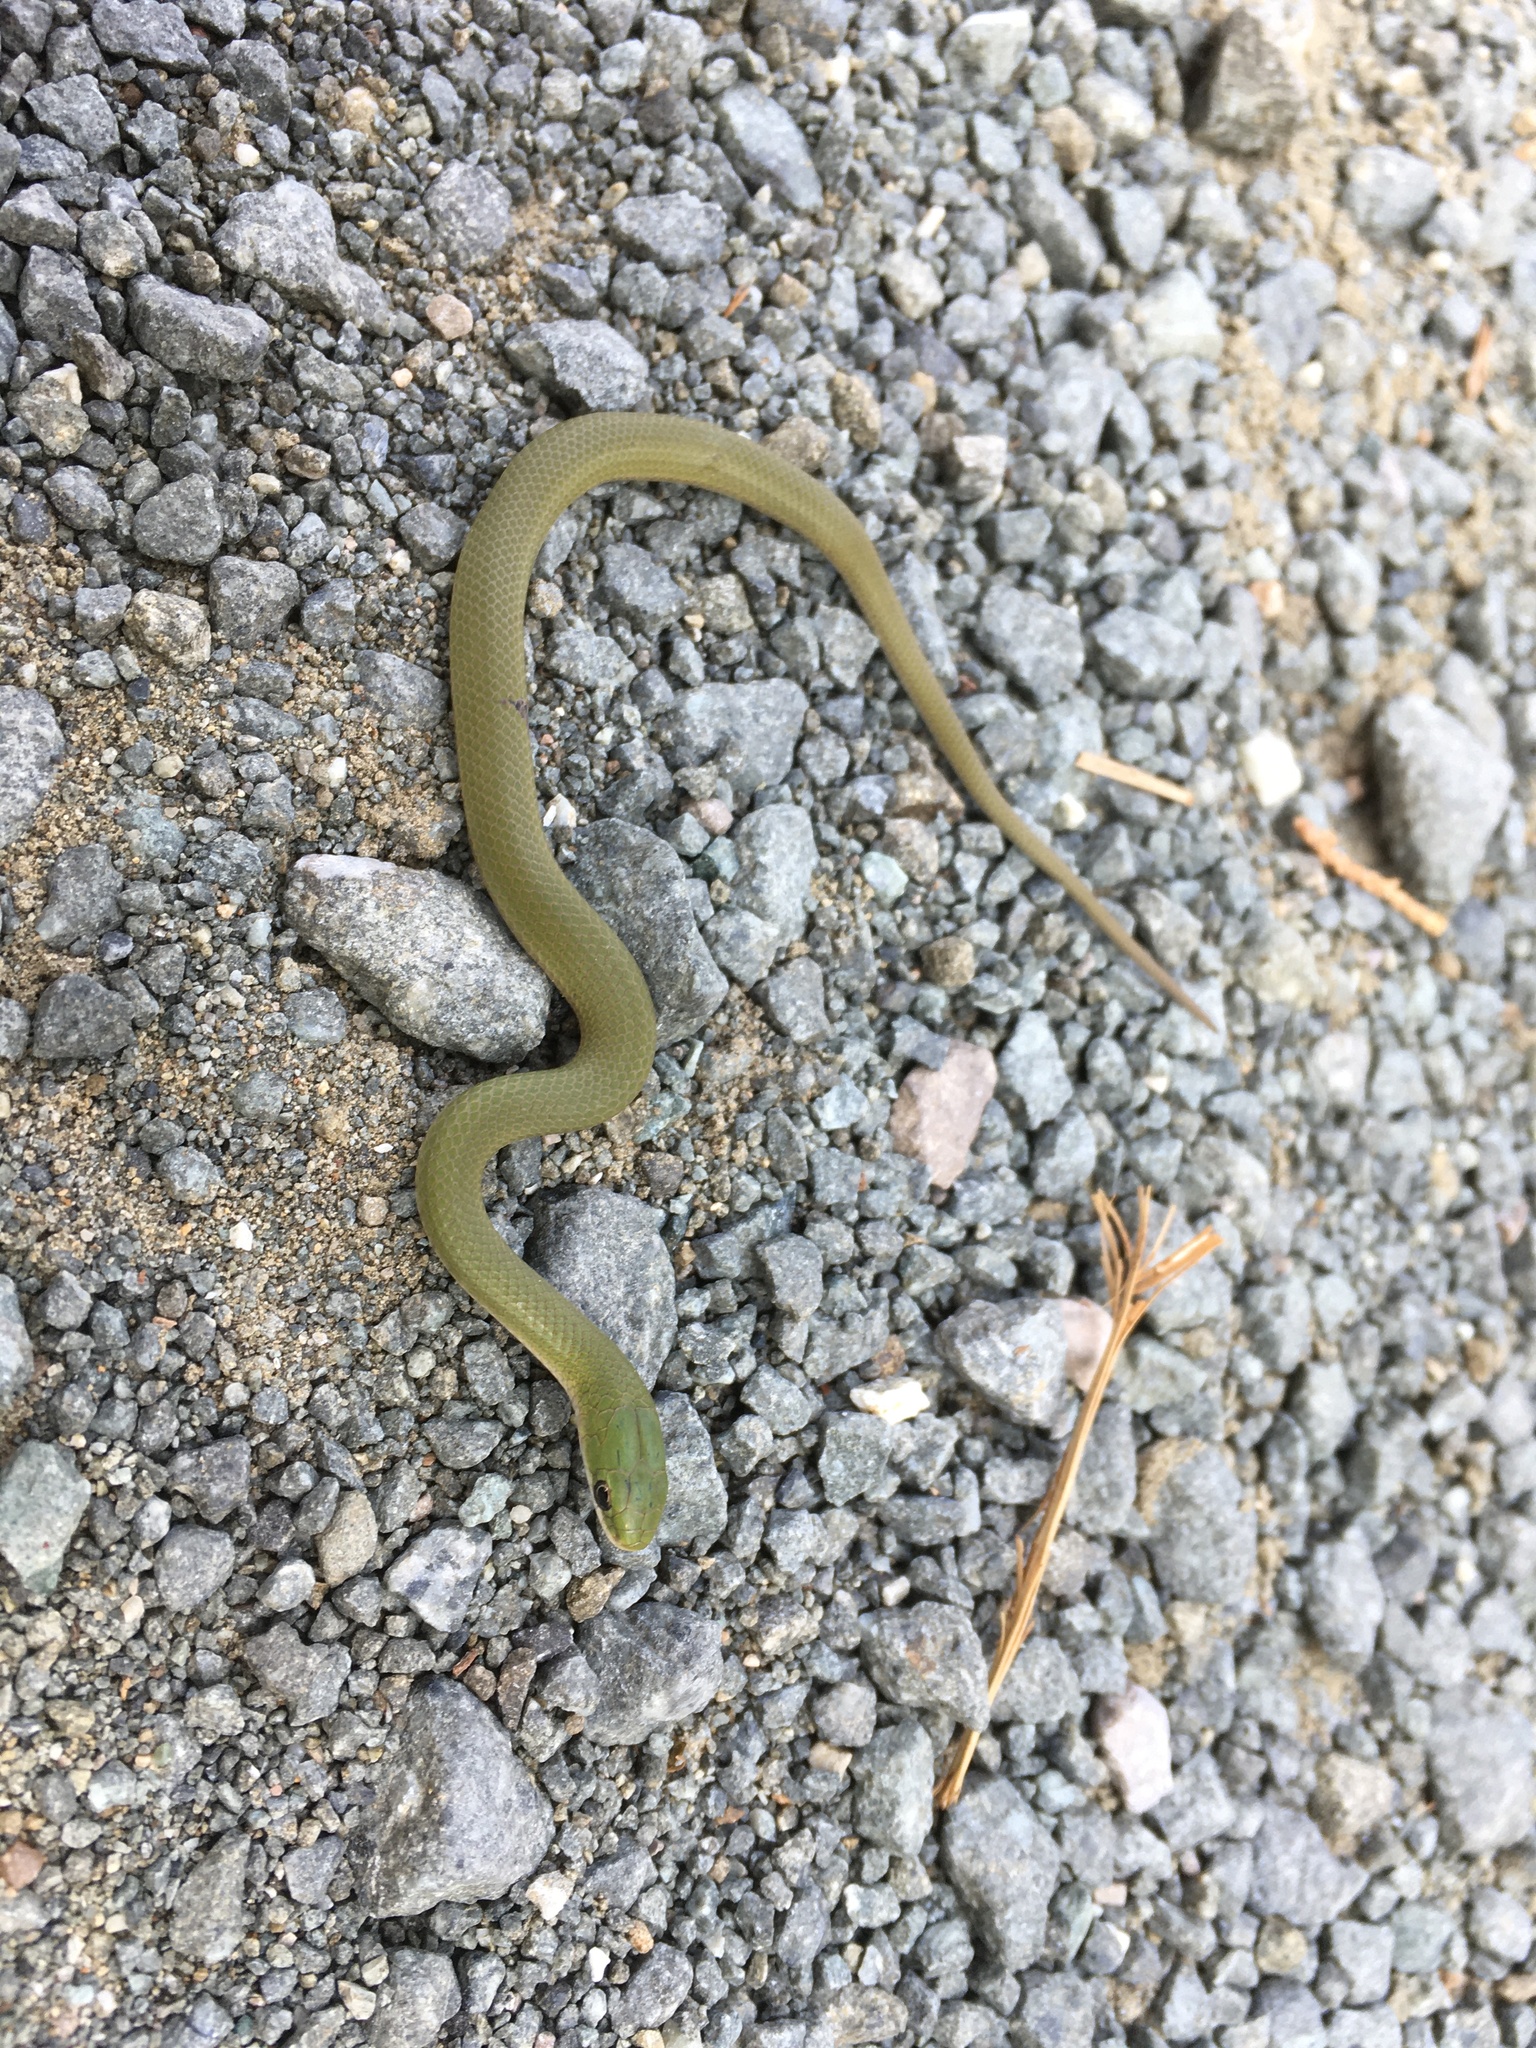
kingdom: Animalia
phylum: Chordata
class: Squamata
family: Colubridae
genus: Opheodrys
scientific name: Opheodrys vernalis
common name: Smooth green snake
